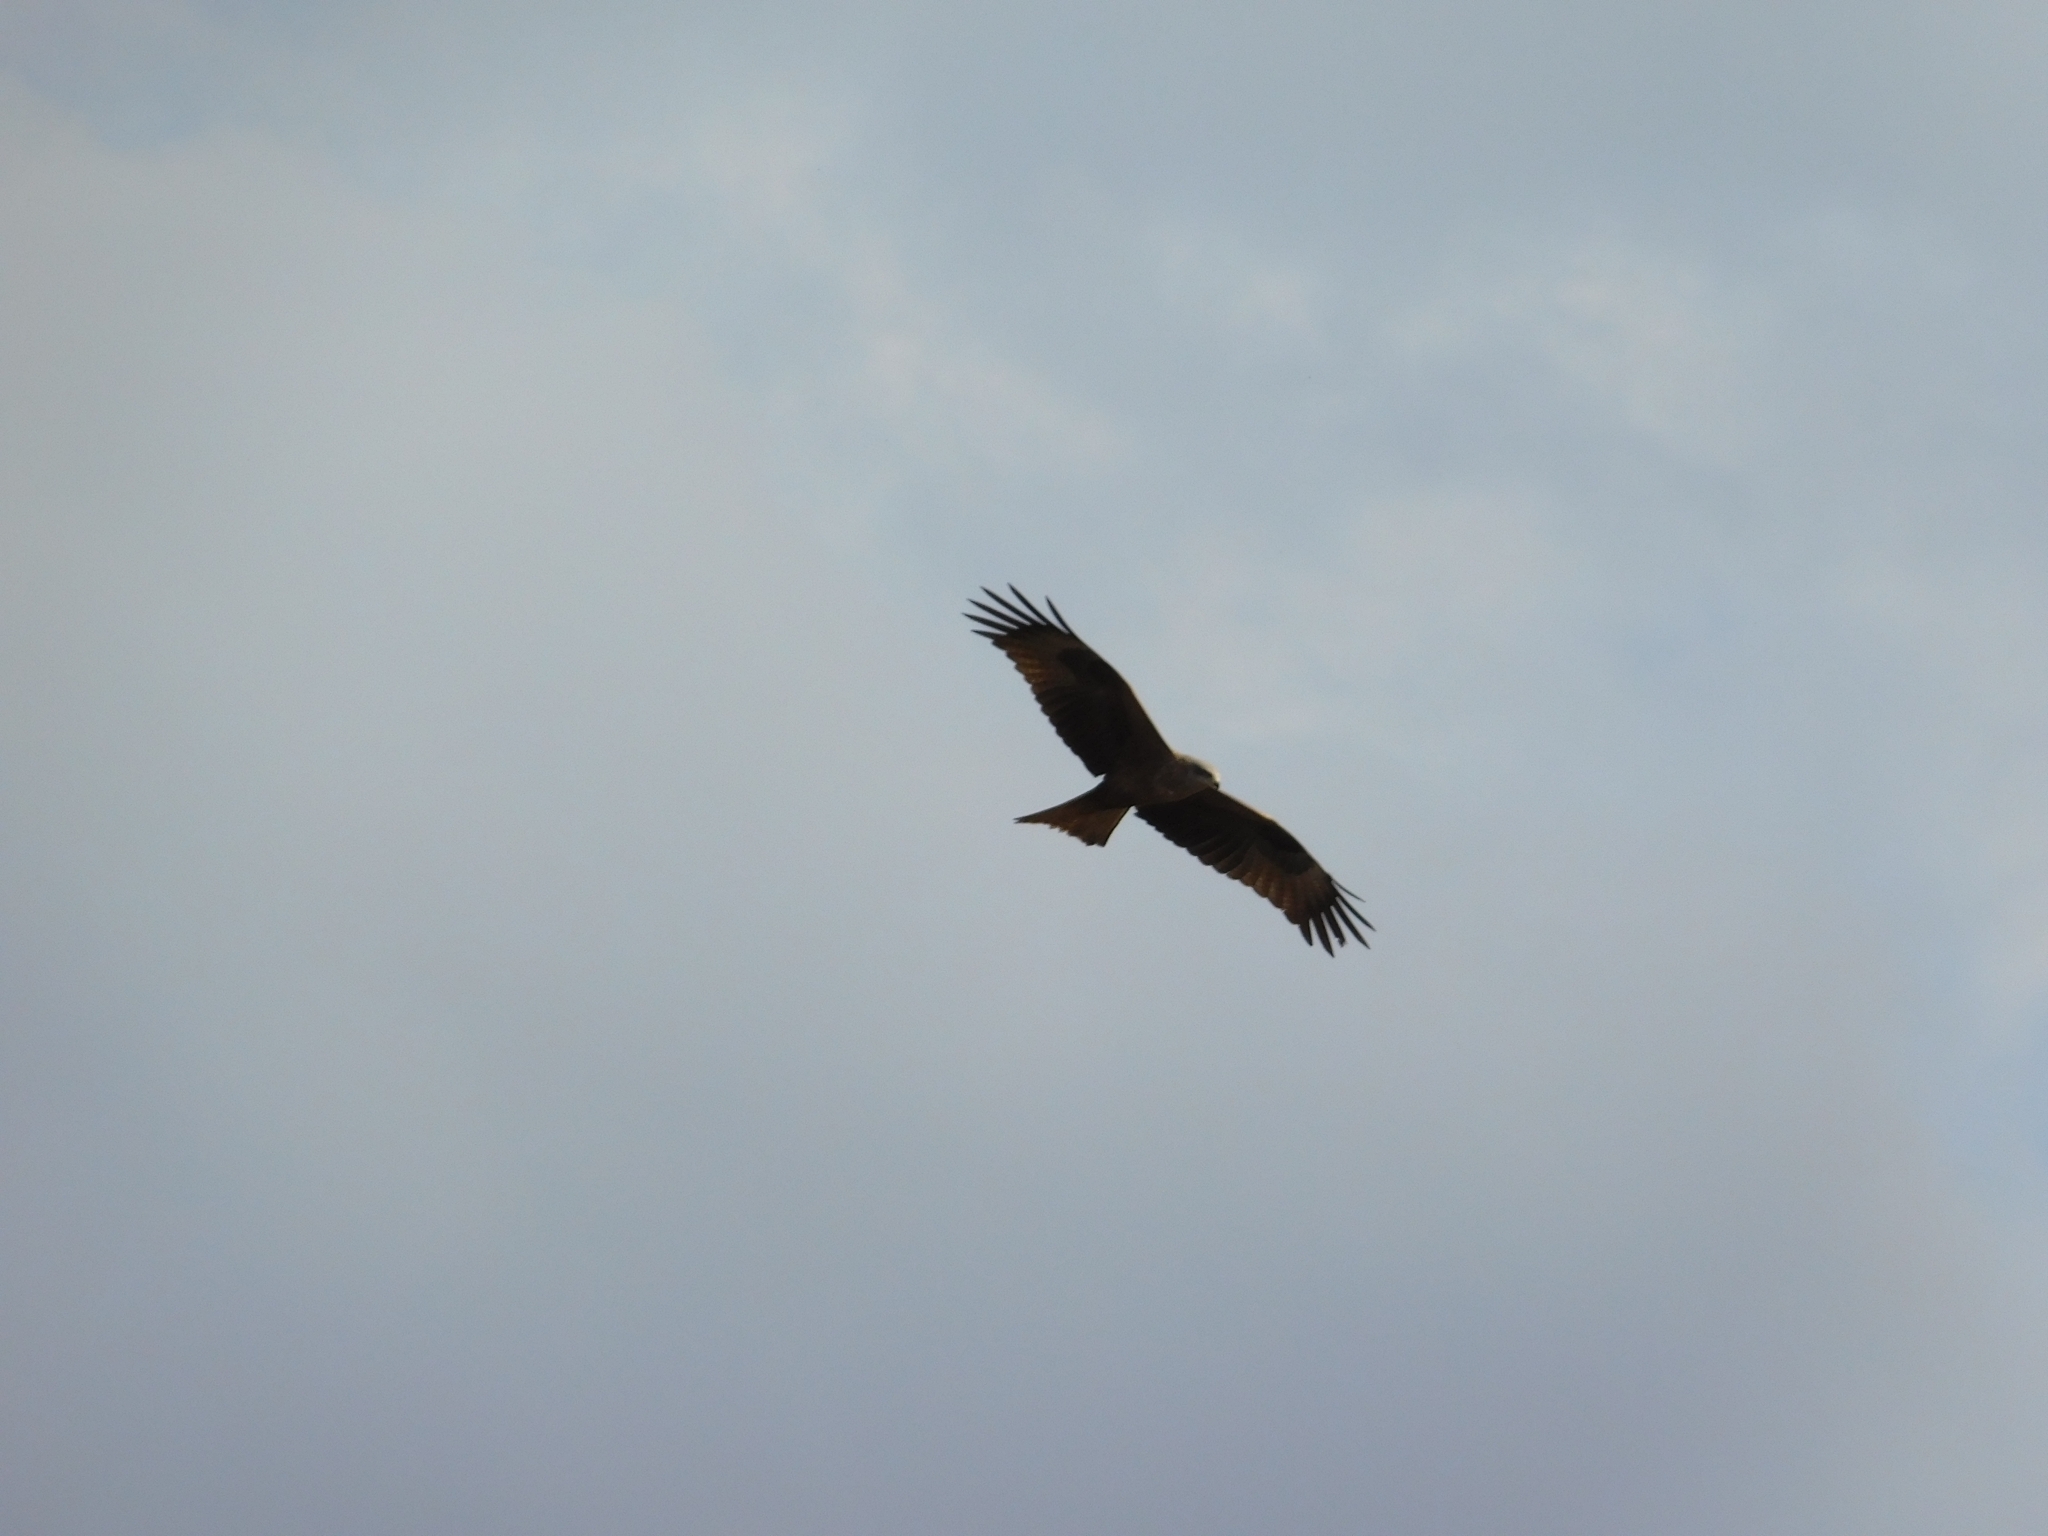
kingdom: Animalia
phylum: Chordata
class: Aves
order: Accipitriformes
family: Accipitridae
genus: Milvus
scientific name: Milvus migrans
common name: Black kite
